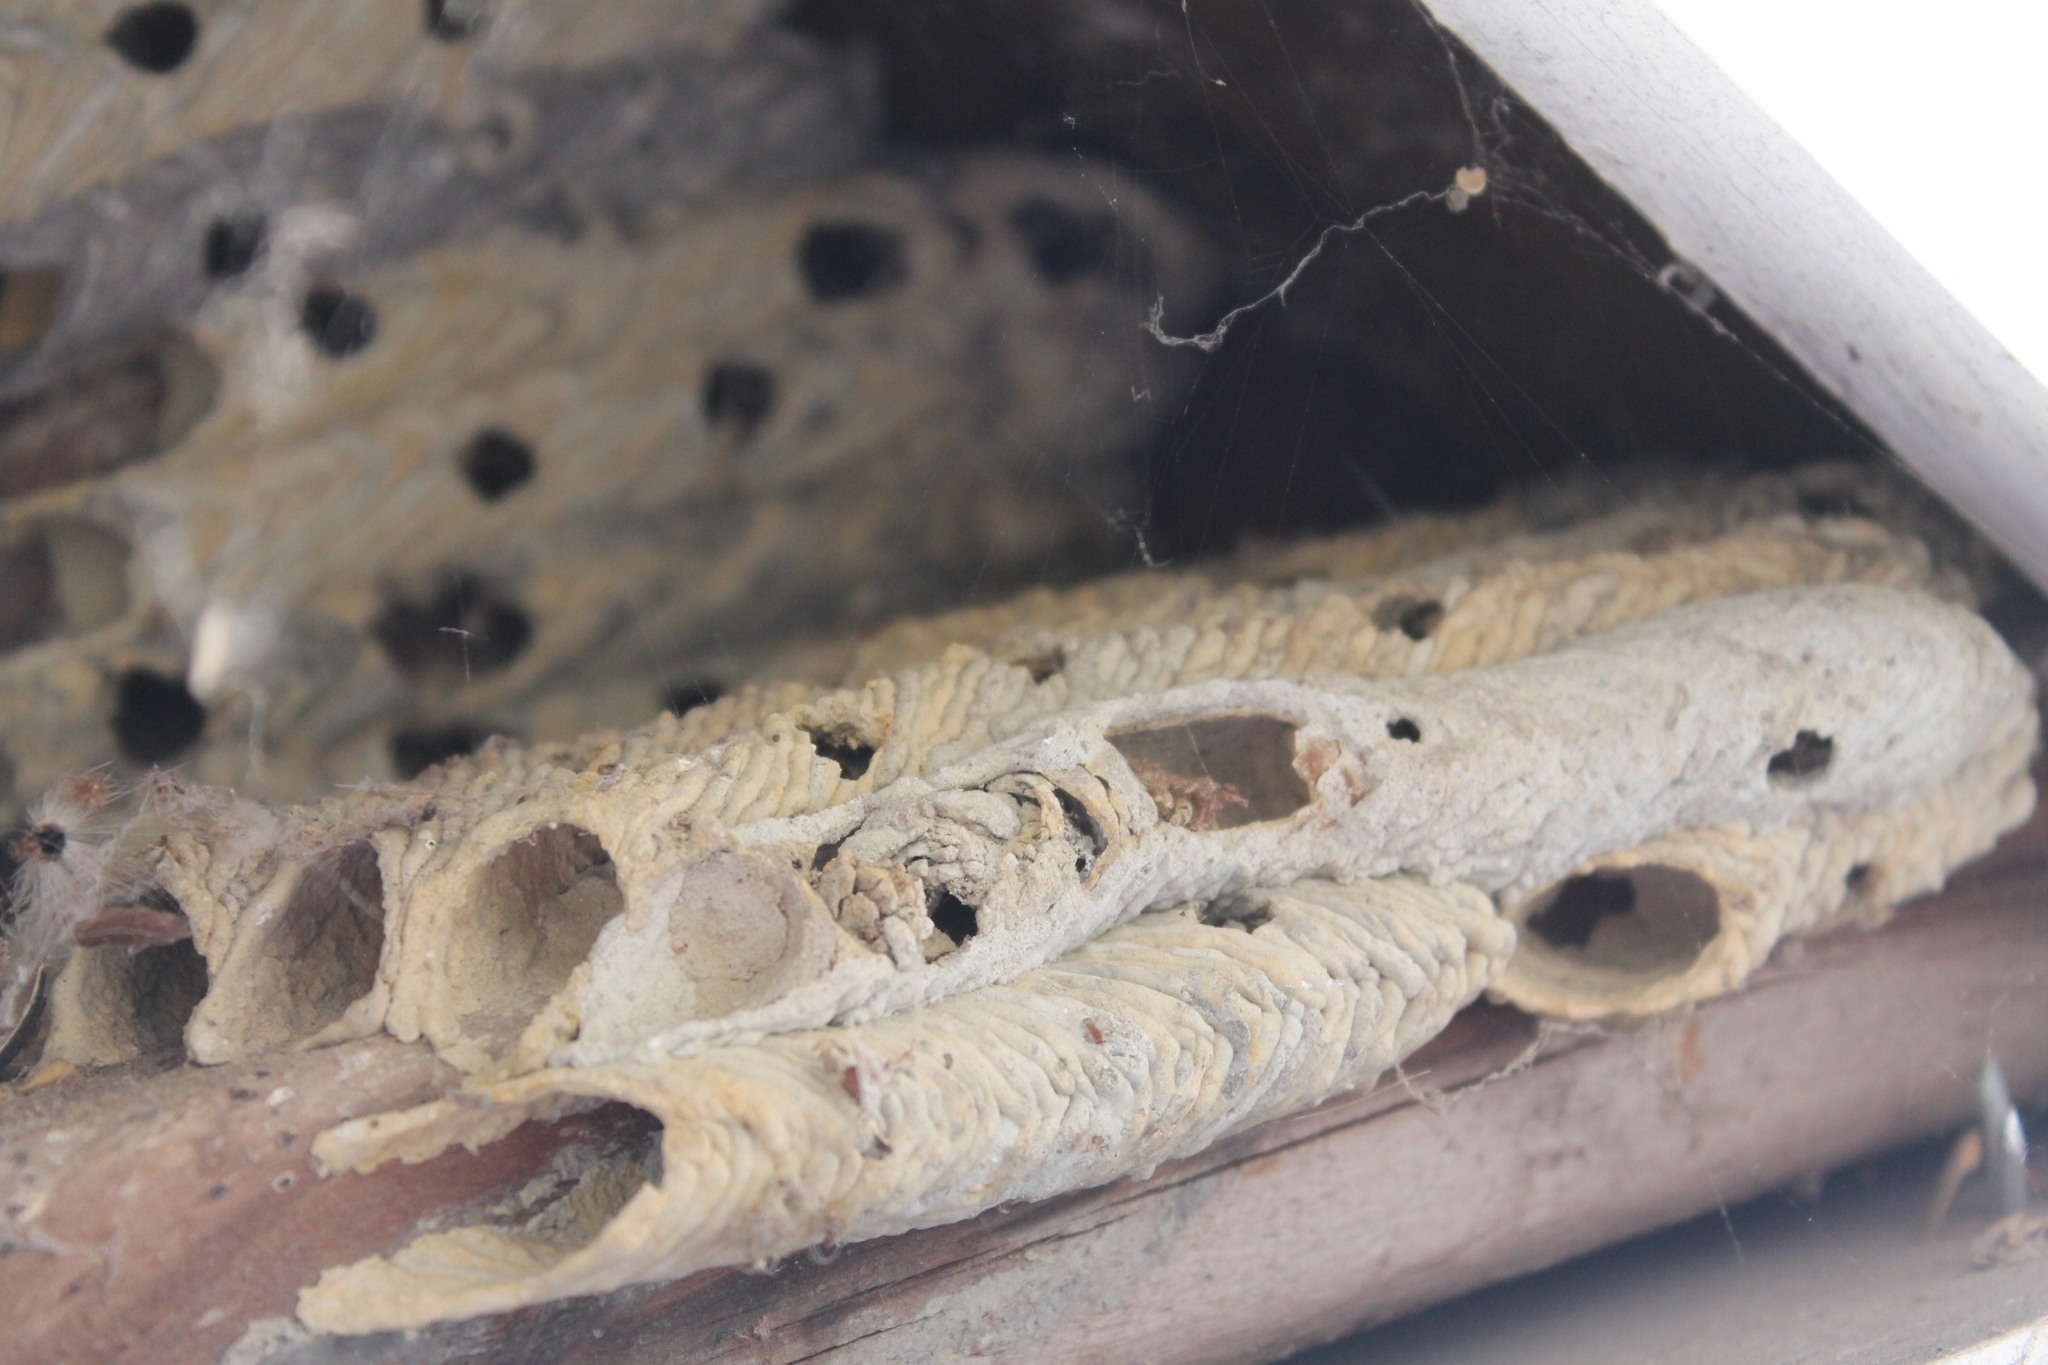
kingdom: Animalia
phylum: Arthropoda
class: Insecta
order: Hymenoptera
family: Crabronidae
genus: Trypoxylon
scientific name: Trypoxylon politum
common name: Organ-pipe mud-dauber wasp
